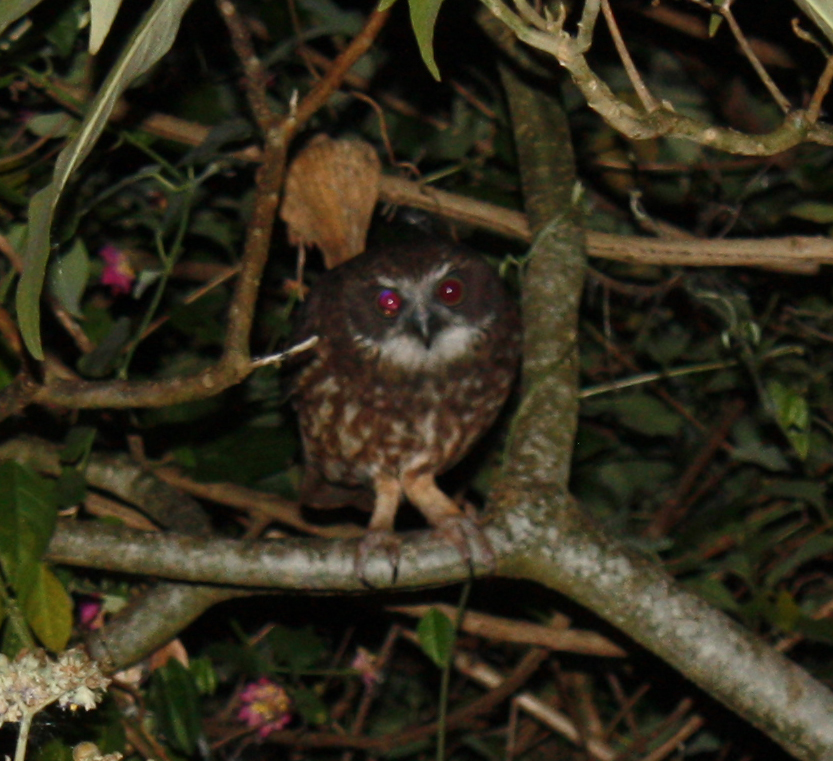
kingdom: Animalia
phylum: Chordata
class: Aves
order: Strigiformes
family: Strigidae
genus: Ninox
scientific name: Ninox boobook
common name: Southern boobook
